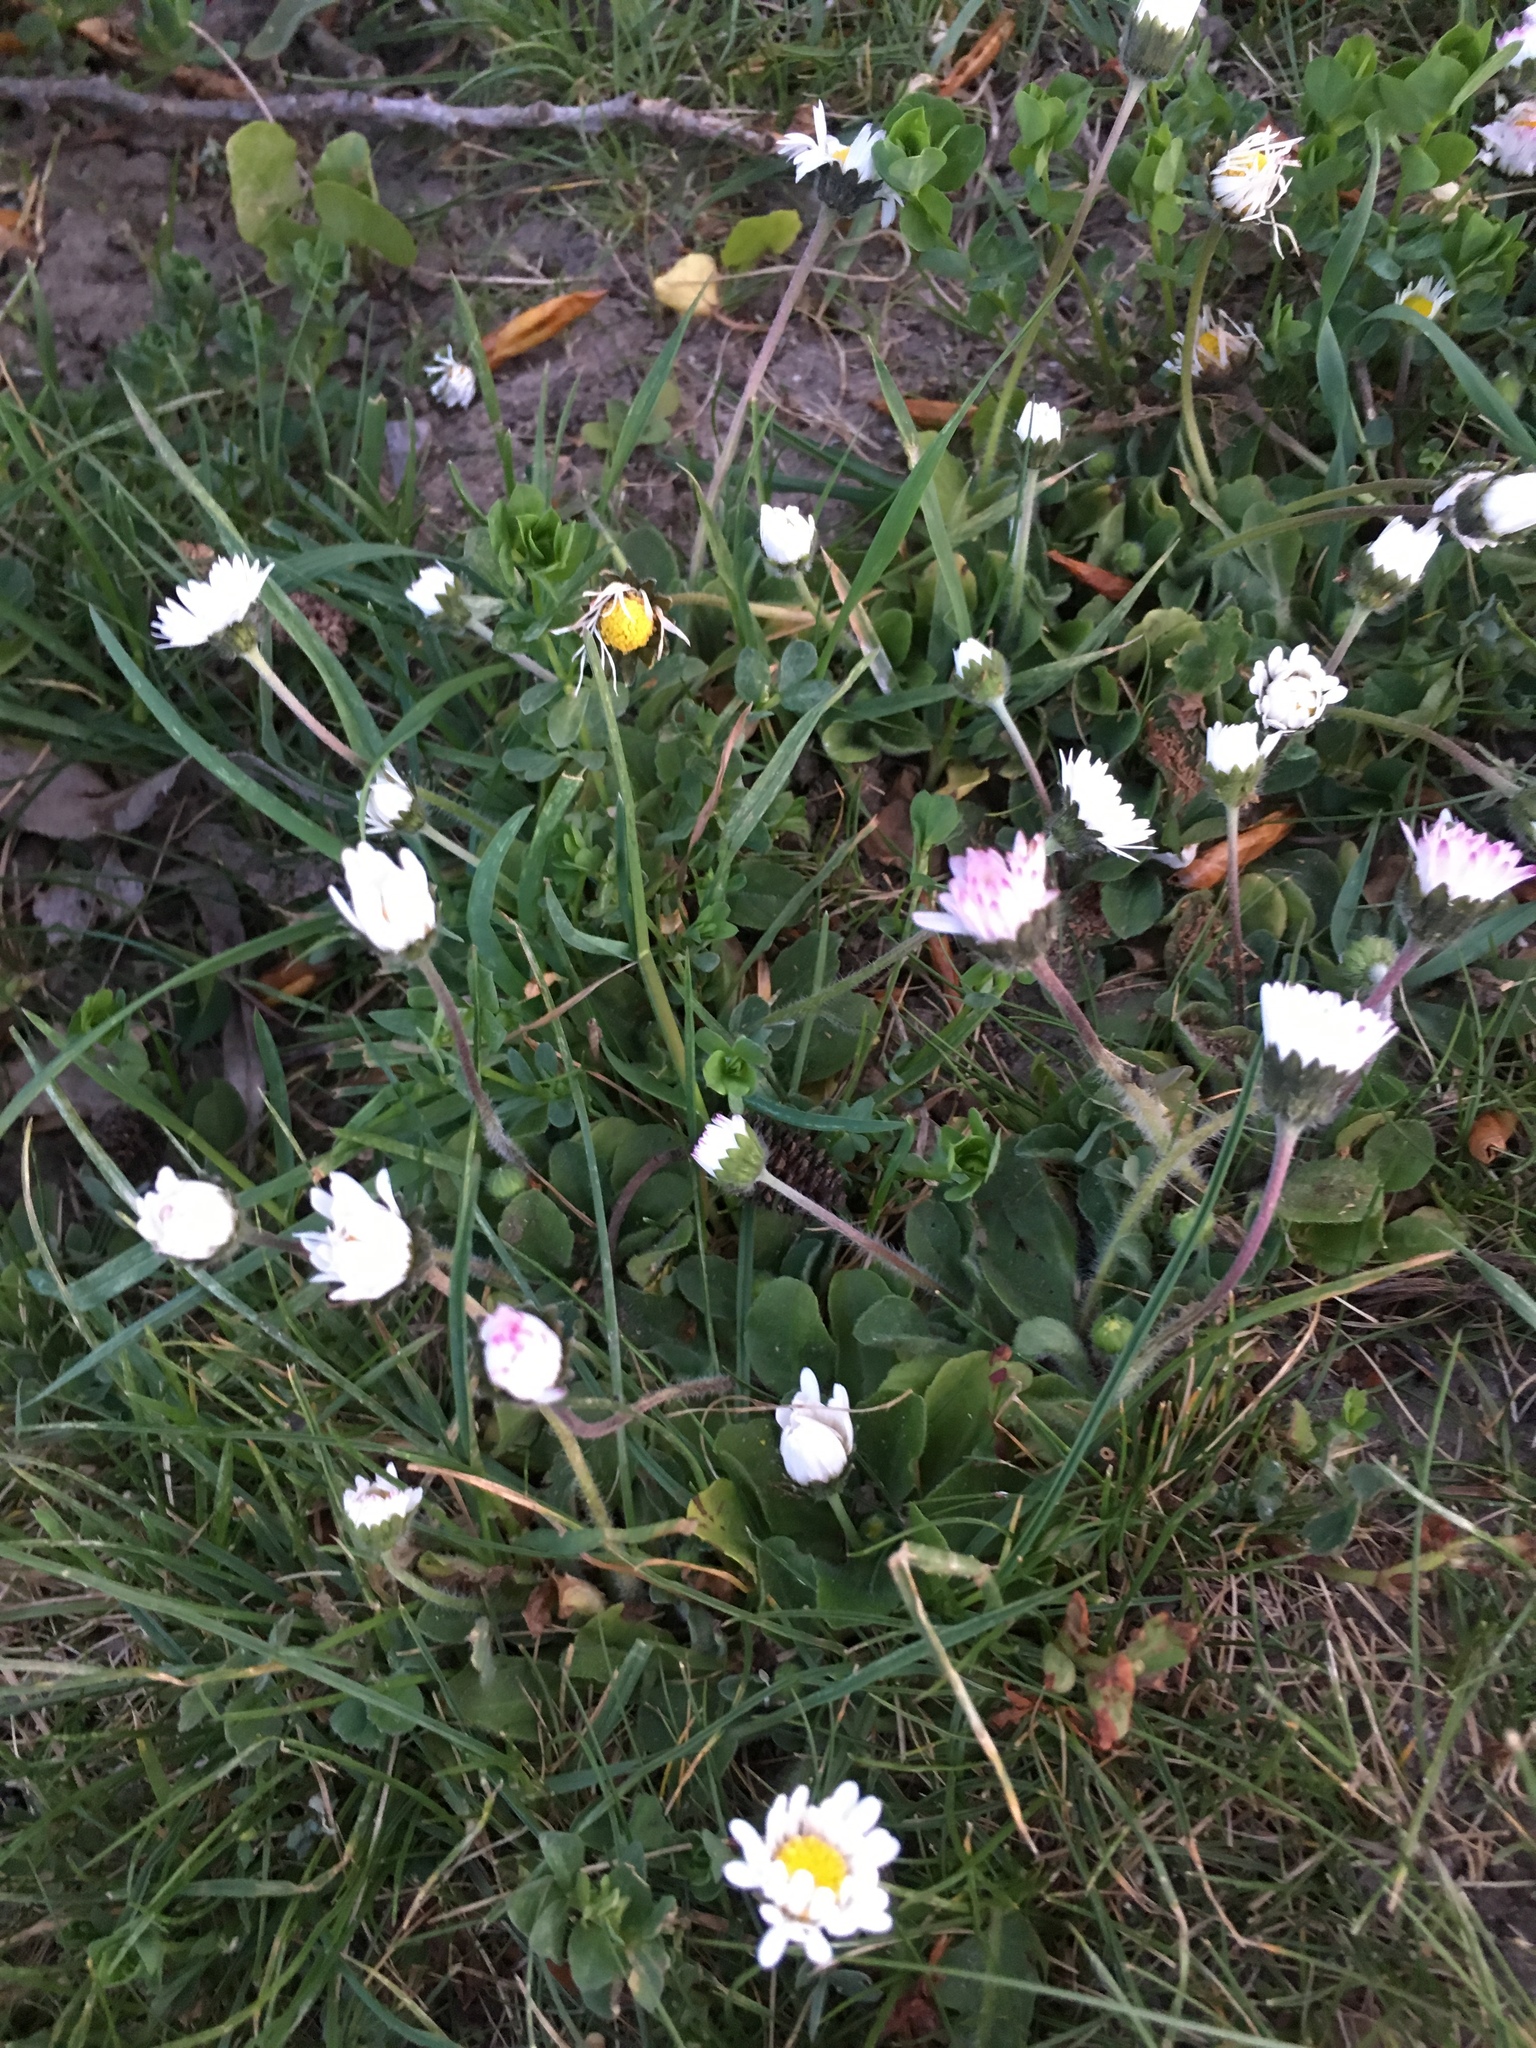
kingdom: Plantae
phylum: Tracheophyta
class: Magnoliopsida
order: Asterales
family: Asteraceae
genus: Bellis
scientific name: Bellis perennis
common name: Lawndaisy
